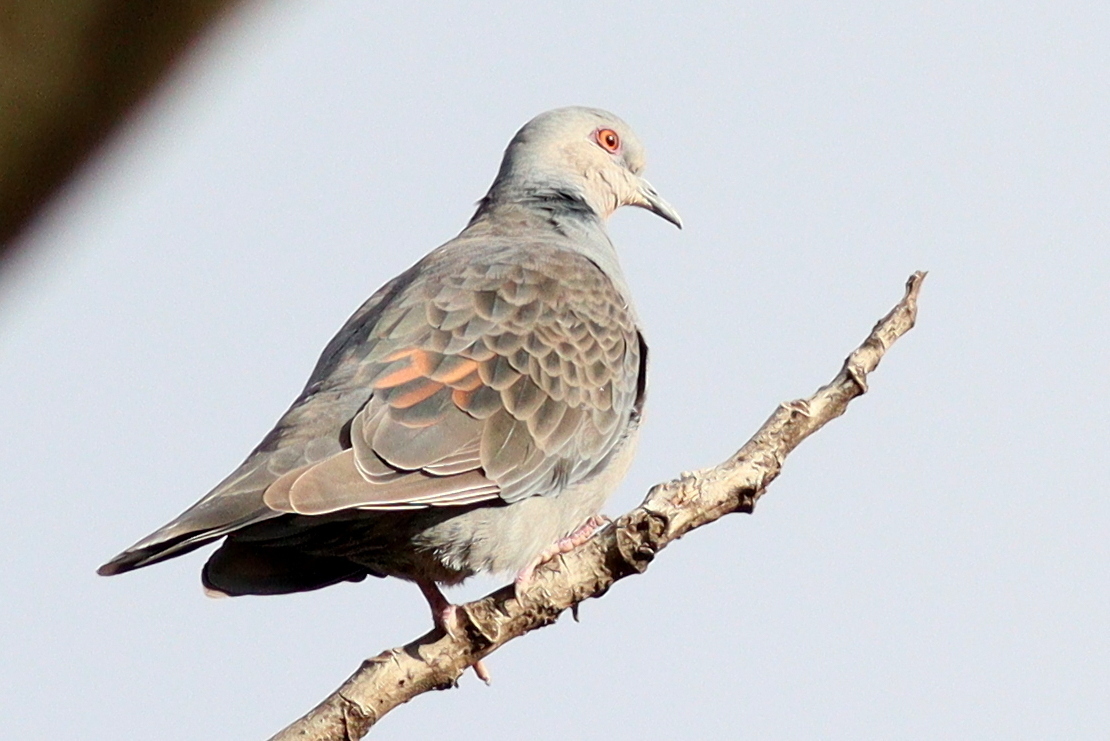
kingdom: Animalia
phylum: Chordata
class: Aves
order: Columbiformes
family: Columbidae
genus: Streptopelia
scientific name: Streptopelia lugens
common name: Dusky turtle dove
